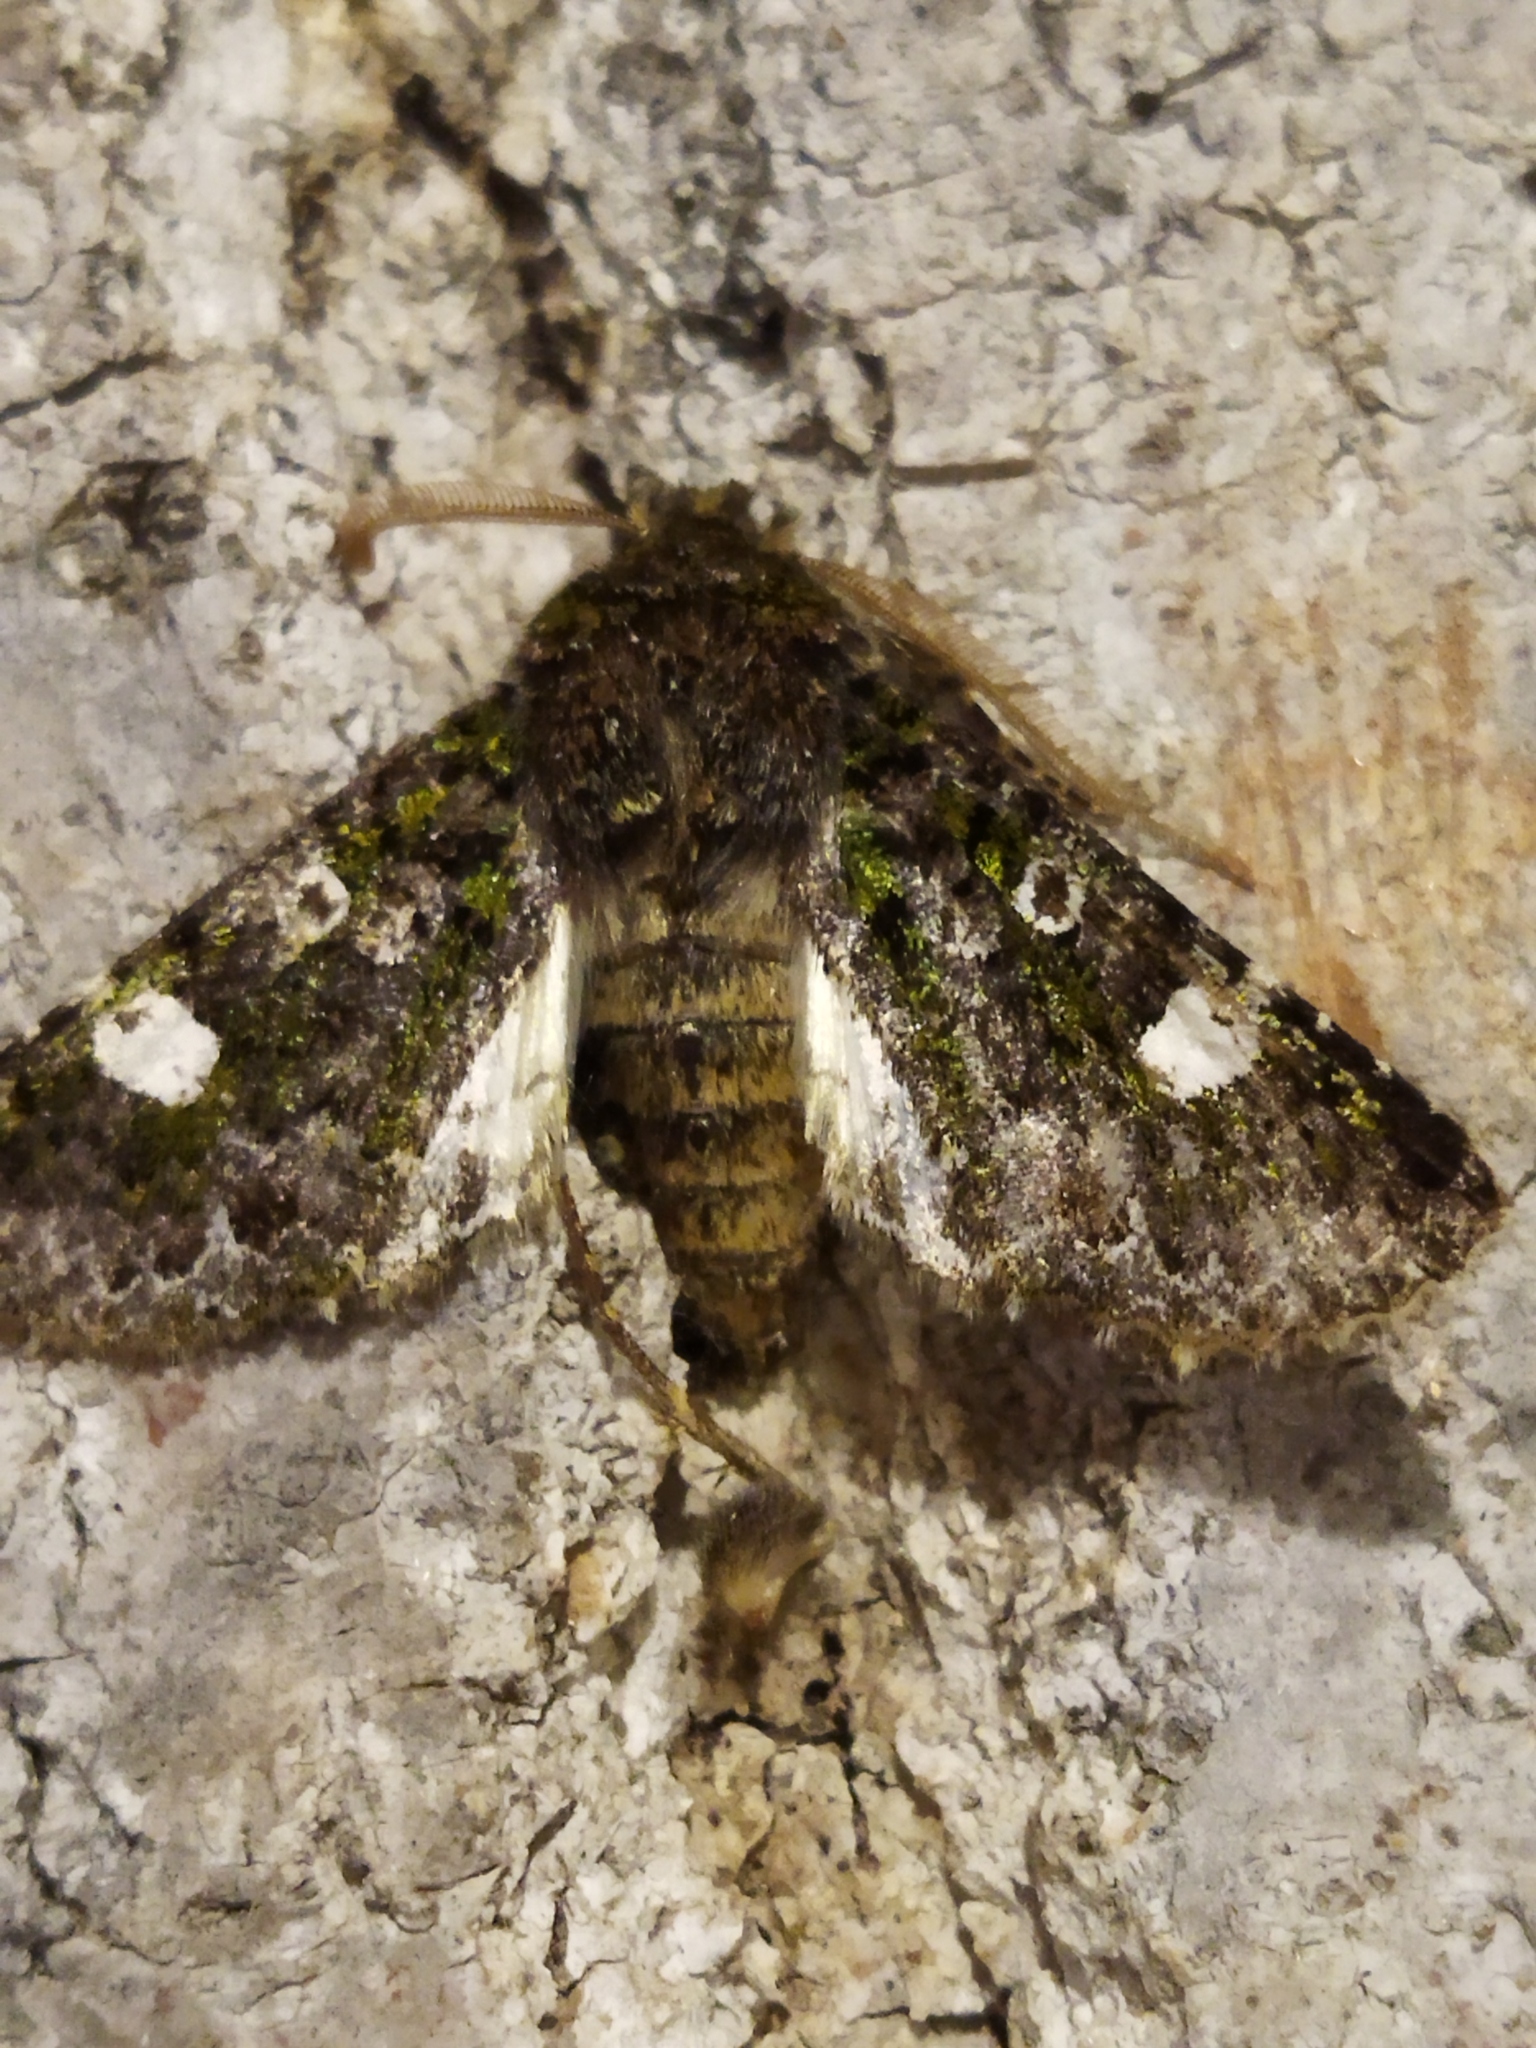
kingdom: Animalia
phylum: Arthropoda
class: Insecta
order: Lepidoptera
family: Noctuidae
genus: Valeria
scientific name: Valeria oleagina
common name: Green-brindled dot
